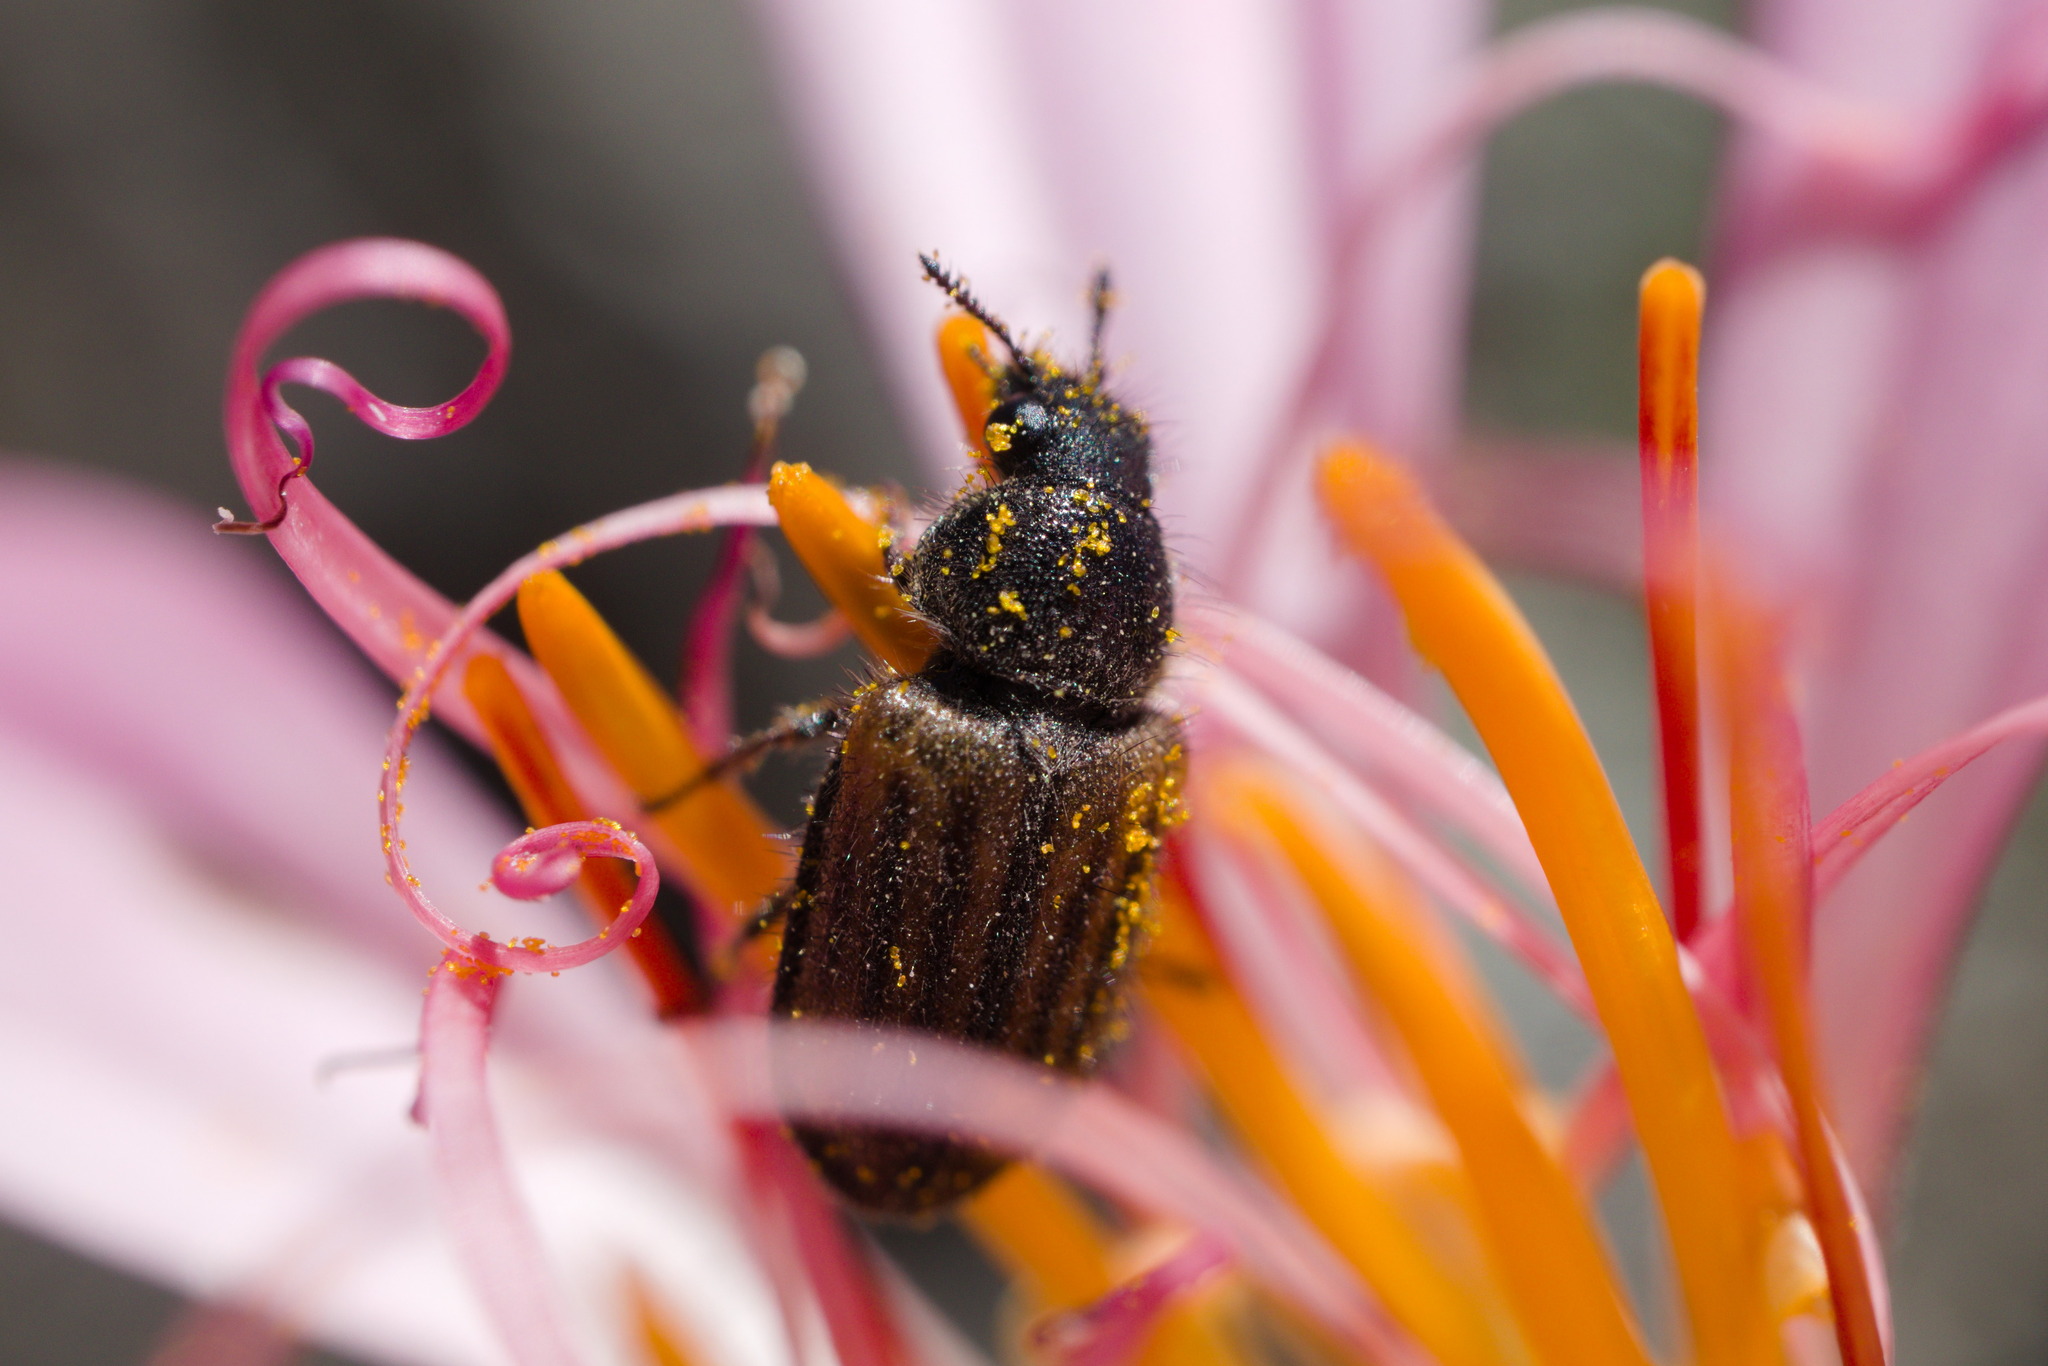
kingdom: Animalia
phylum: Arthropoda
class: Insecta
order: Coleoptera
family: Melyridae
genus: Arthrobrachus
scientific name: Arthrobrachus
